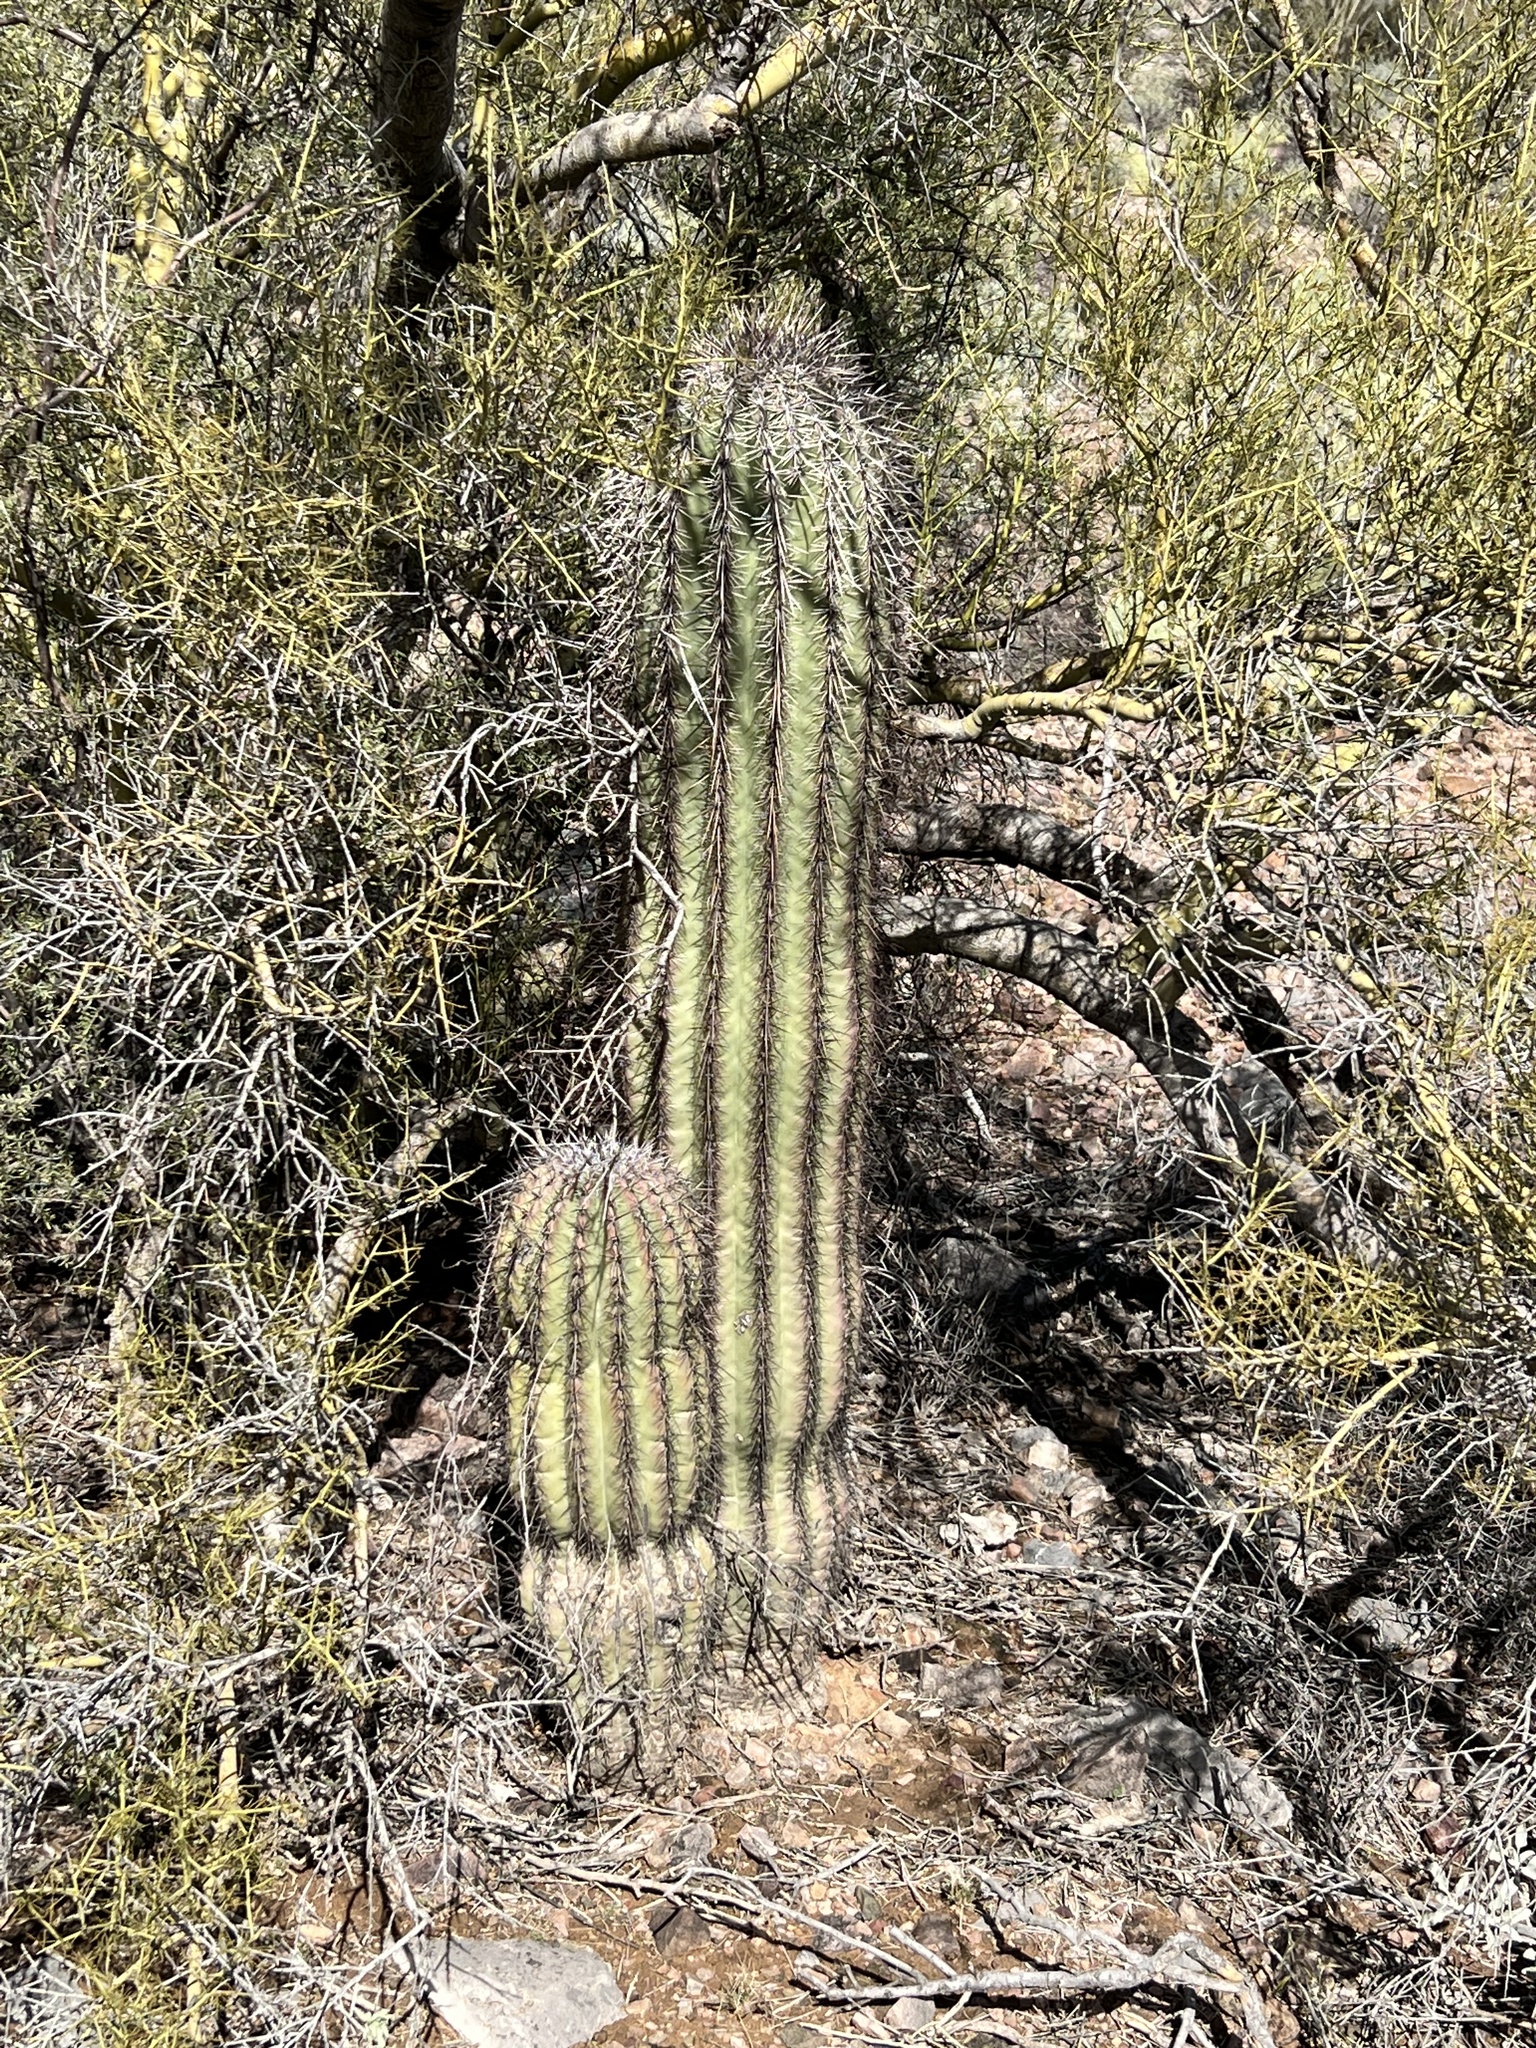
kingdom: Plantae
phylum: Tracheophyta
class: Magnoliopsida
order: Caryophyllales
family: Cactaceae
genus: Carnegiea
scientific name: Carnegiea gigantea
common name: Saguaro
